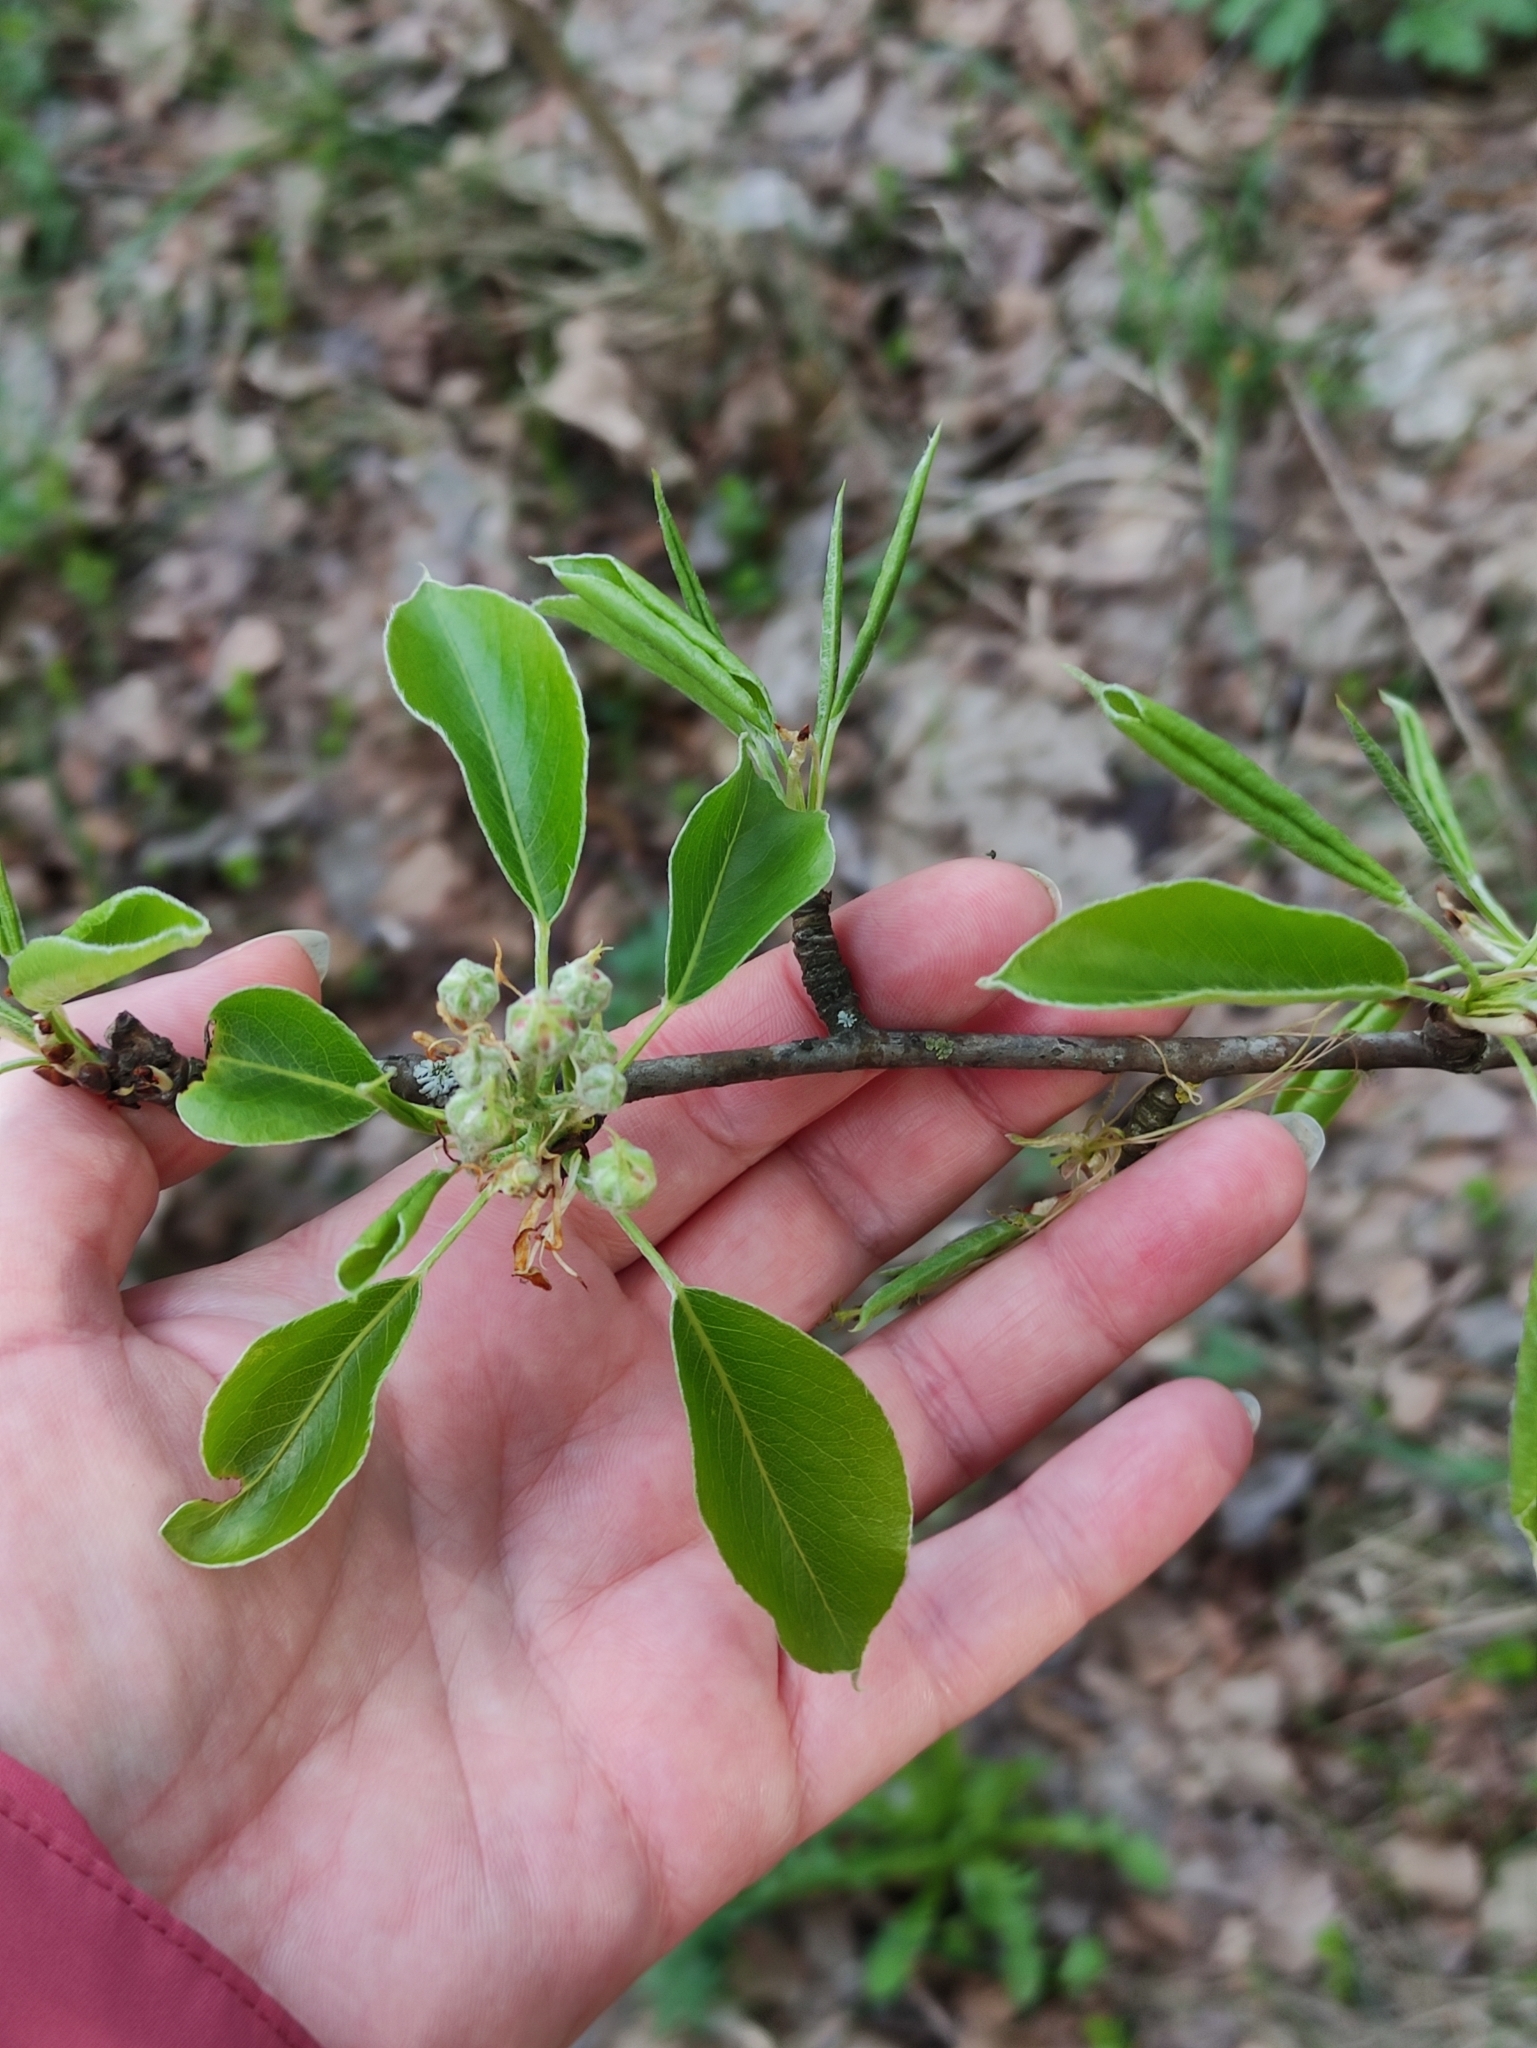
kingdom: Plantae
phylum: Tracheophyta
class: Magnoliopsida
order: Rosales
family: Rosaceae
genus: Pyrus
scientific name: Pyrus communis
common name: Pear
